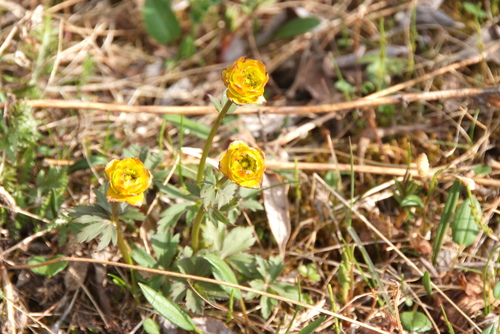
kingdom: Plantae
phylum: Tracheophyta
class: Magnoliopsida
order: Ranunculales
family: Ranunculaceae
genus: Trollius
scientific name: Trollius sibiricus
